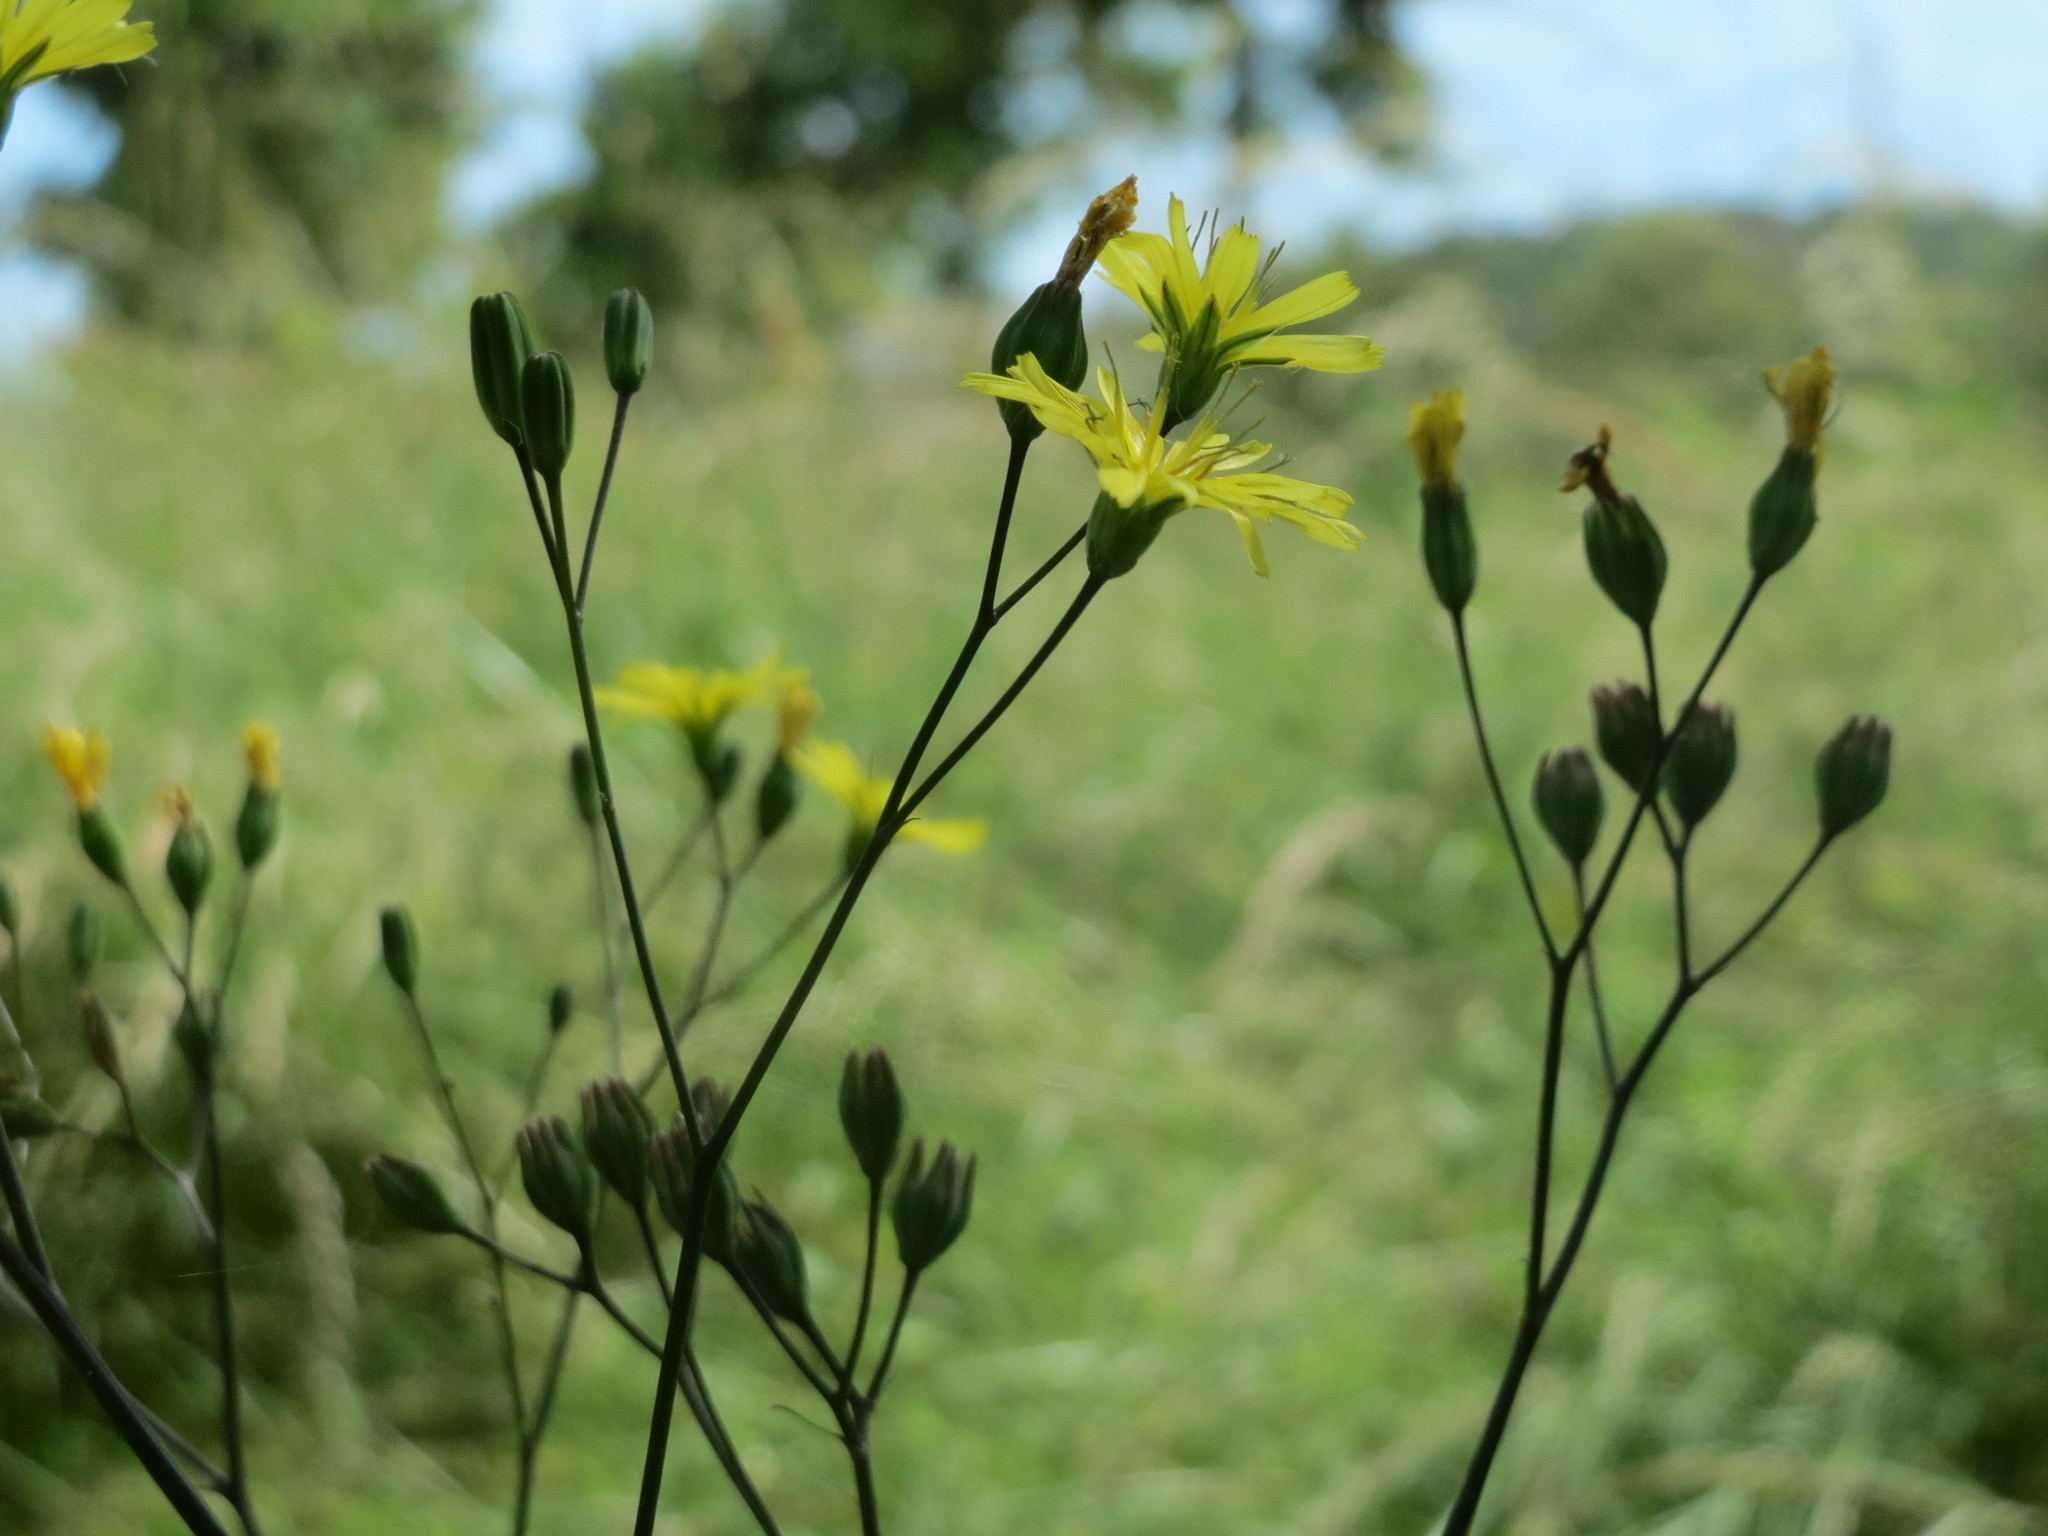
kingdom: Plantae
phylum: Tracheophyta
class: Magnoliopsida
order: Asterales
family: Asteraceae
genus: Lapsana
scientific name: Lapsana communis
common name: Nipplewort
